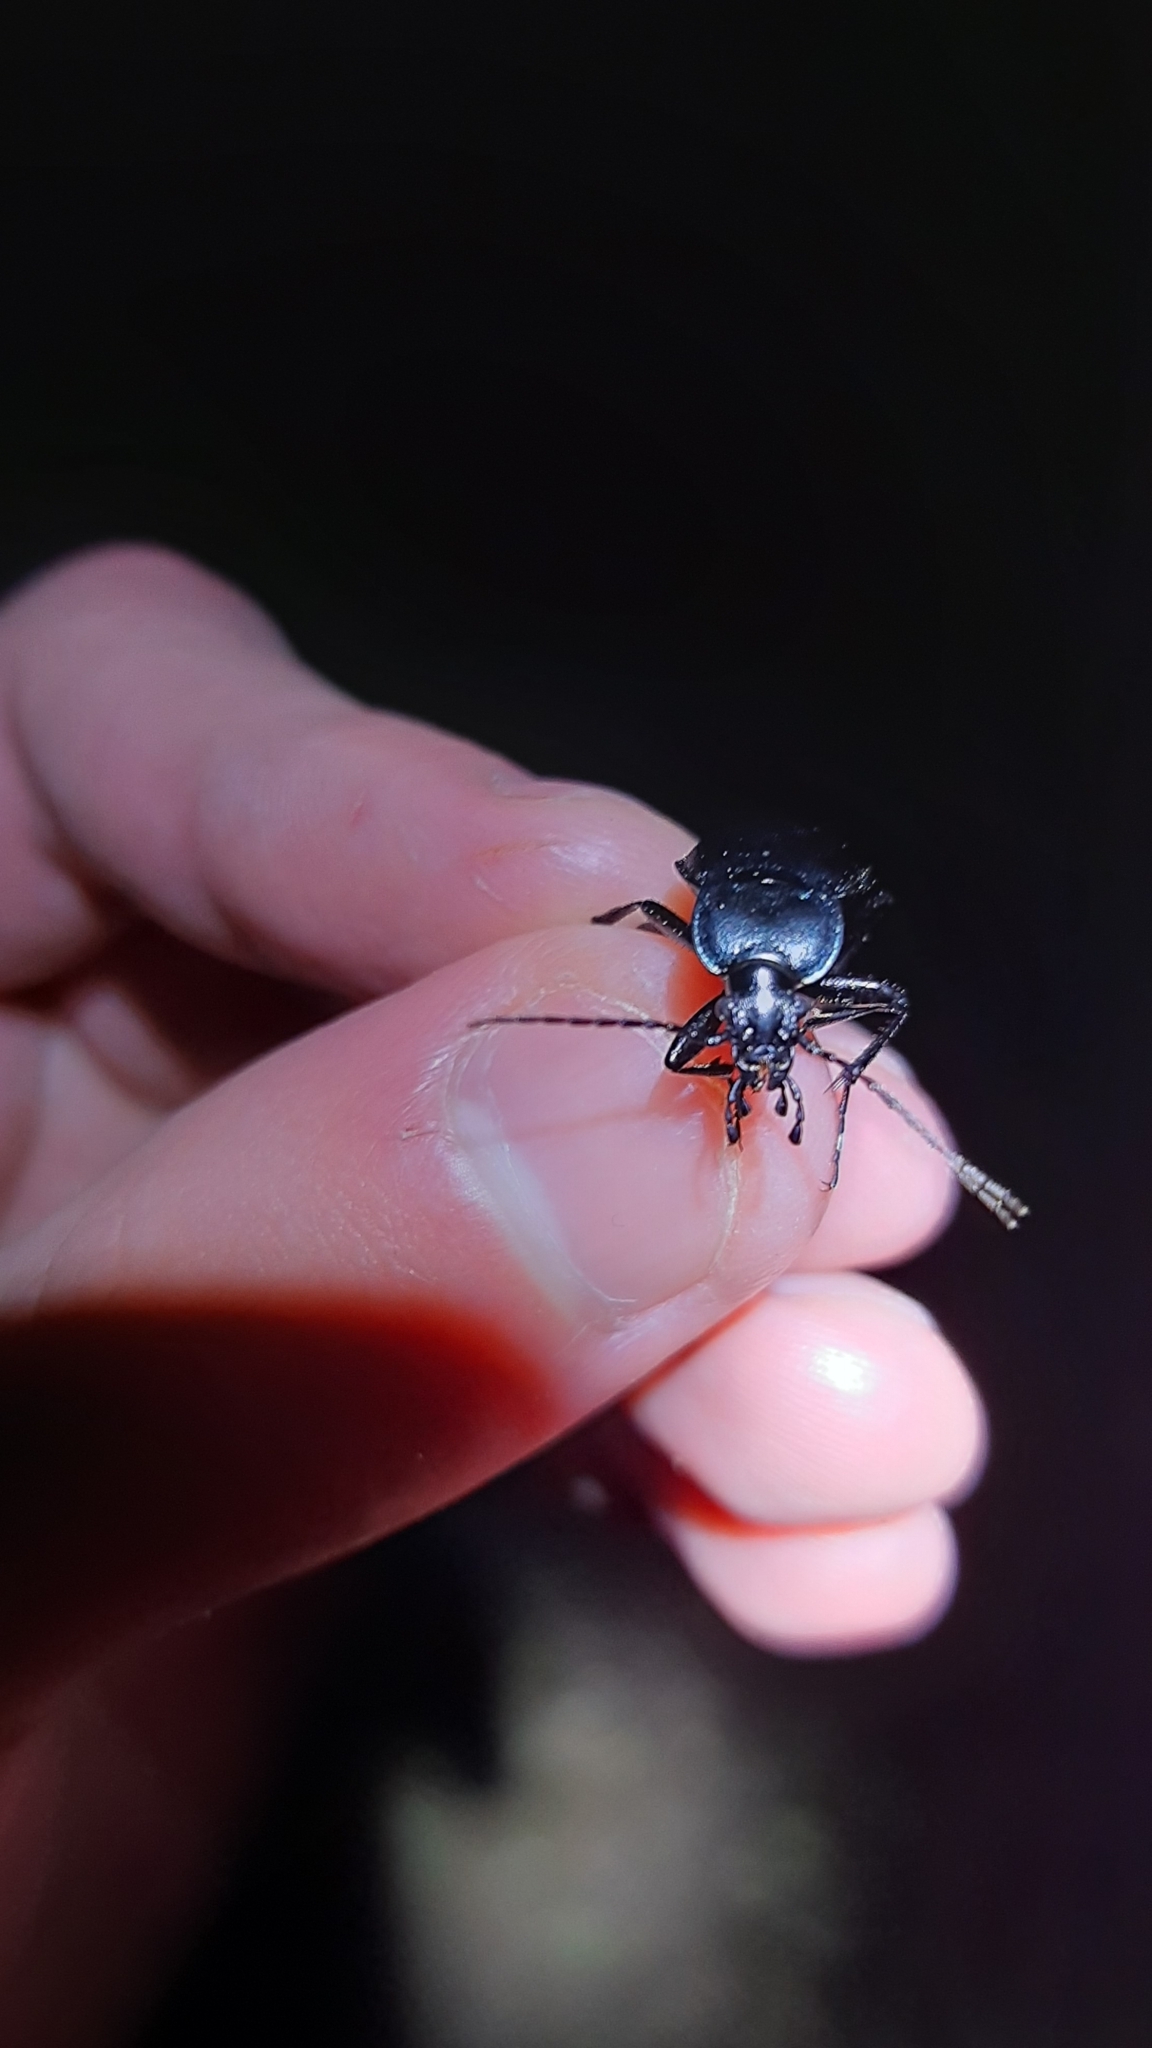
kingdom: Animalia
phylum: Arthropoda
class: Insecta
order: Coleoptera
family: Carabidae
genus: Carabus
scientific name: Carabus convexus
